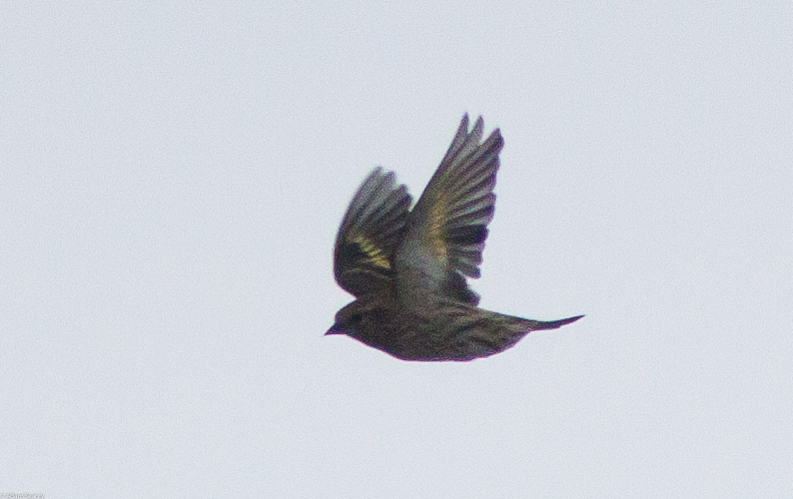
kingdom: Animalia
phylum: Chordata
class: Aves
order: Passeriformes
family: Fringillidae
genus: Spinus
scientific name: Spinus pinus
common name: Pine siskin
